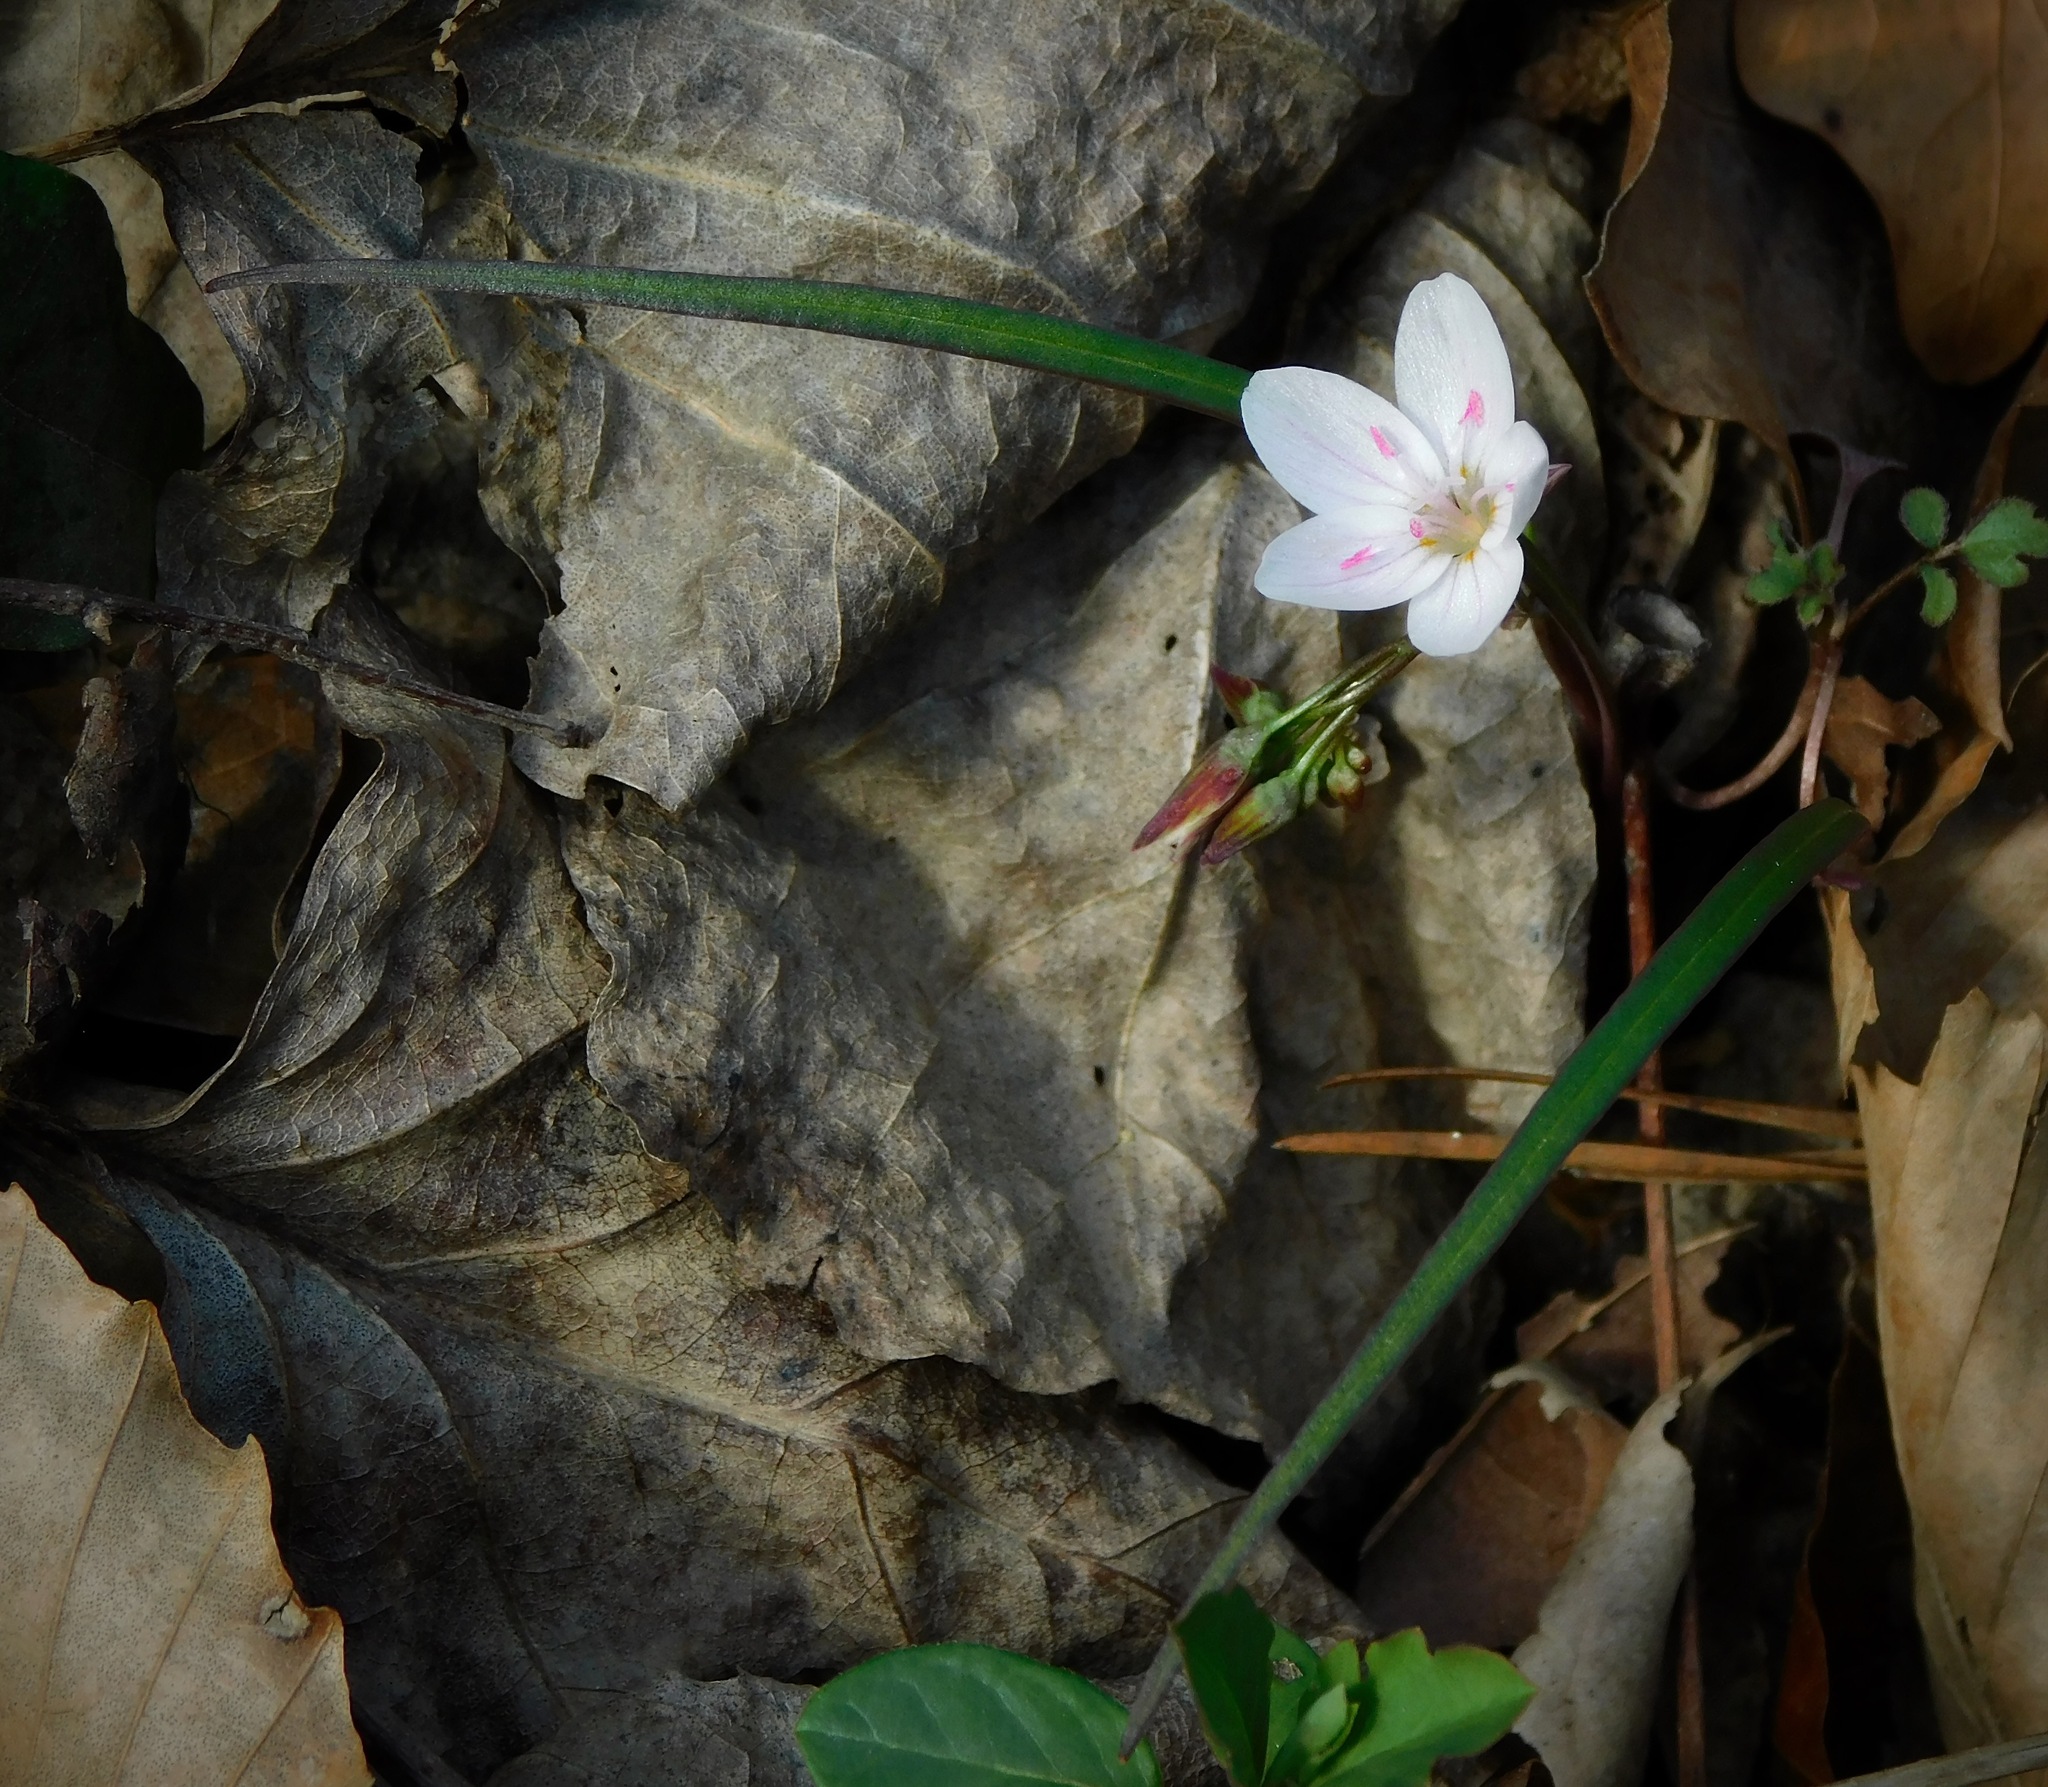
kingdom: Plantae
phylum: Tracheophyta
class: Magnoliopsida
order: Caryophyllales
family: Montiaceae
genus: Claytonia
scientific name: Claytonia virginica
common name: Virginia springbeauty
